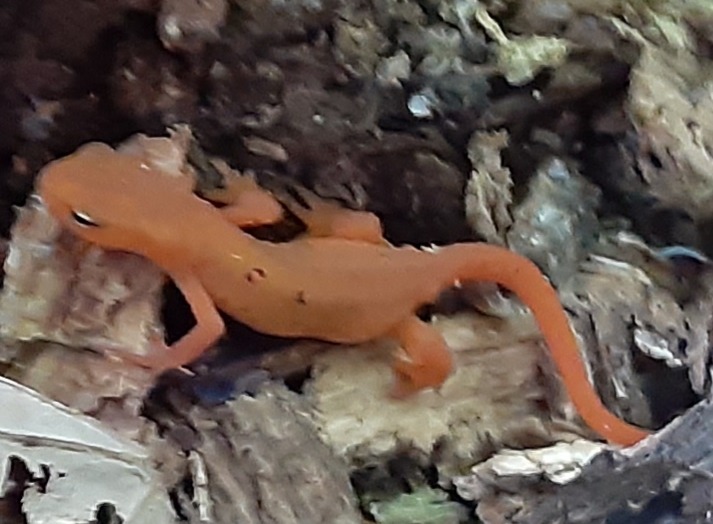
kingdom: Animalia
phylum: Chordata
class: Amphibia
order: Caudata
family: Salamandridae
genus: Notophthalmus
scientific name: Notophthalmus viridescens
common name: Eastern newt
